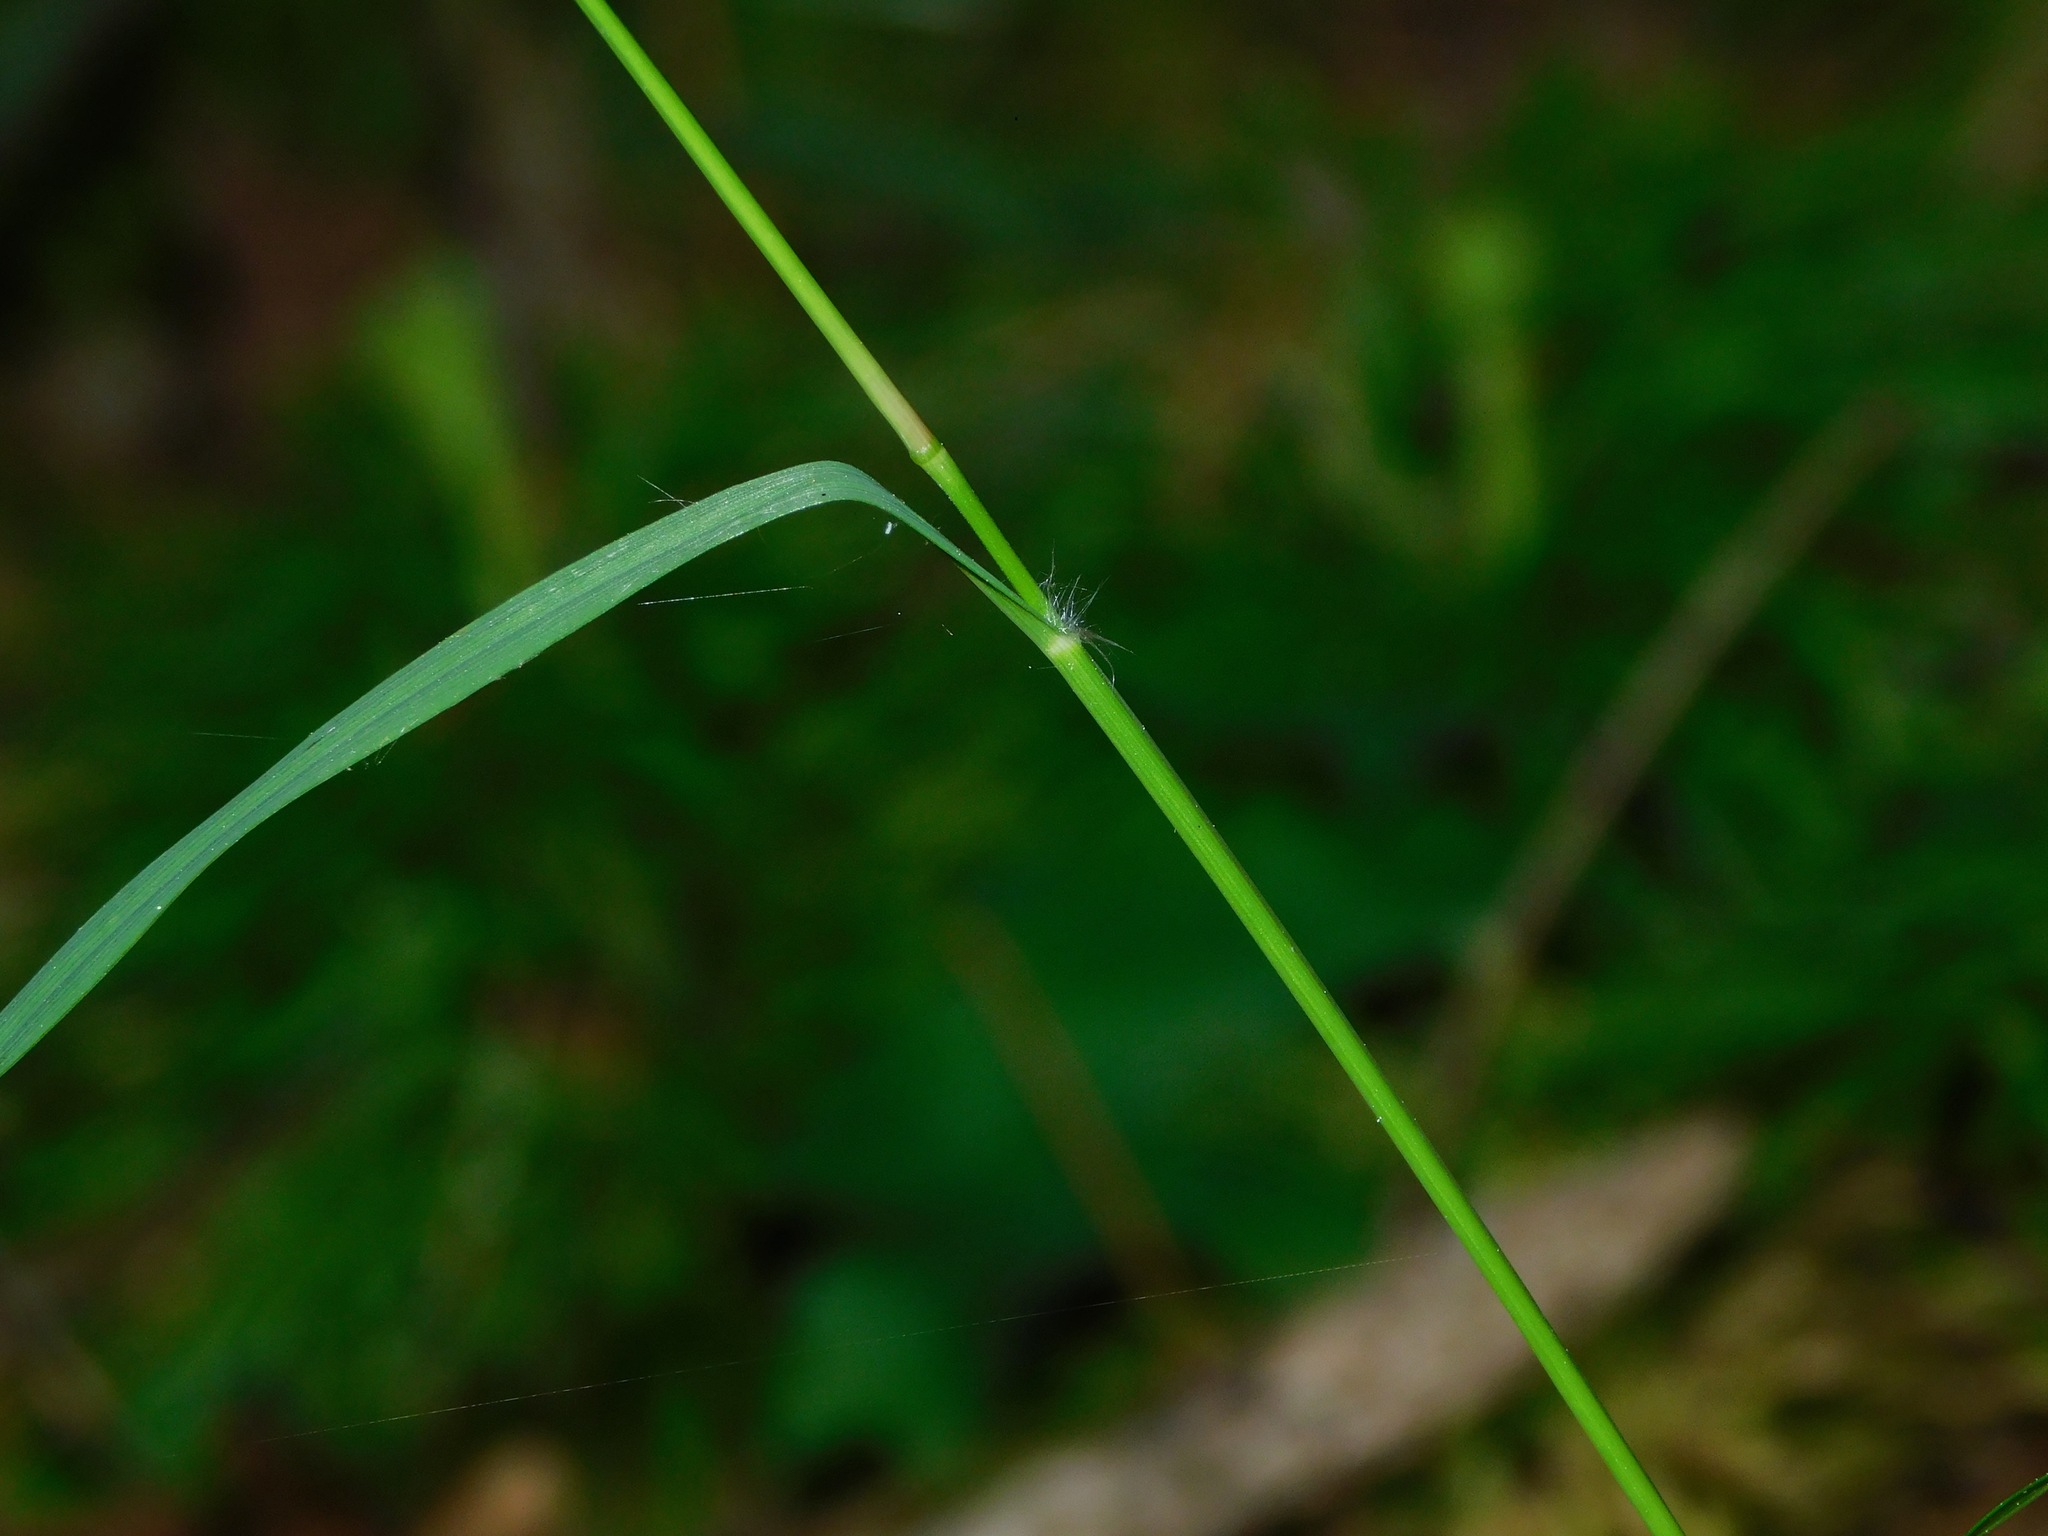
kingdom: Plantae
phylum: Tracheophyta
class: Liliopsida
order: Poales
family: Poaceae
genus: Danthonia
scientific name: Danthonia compressa
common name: Flat-stem oat grass
